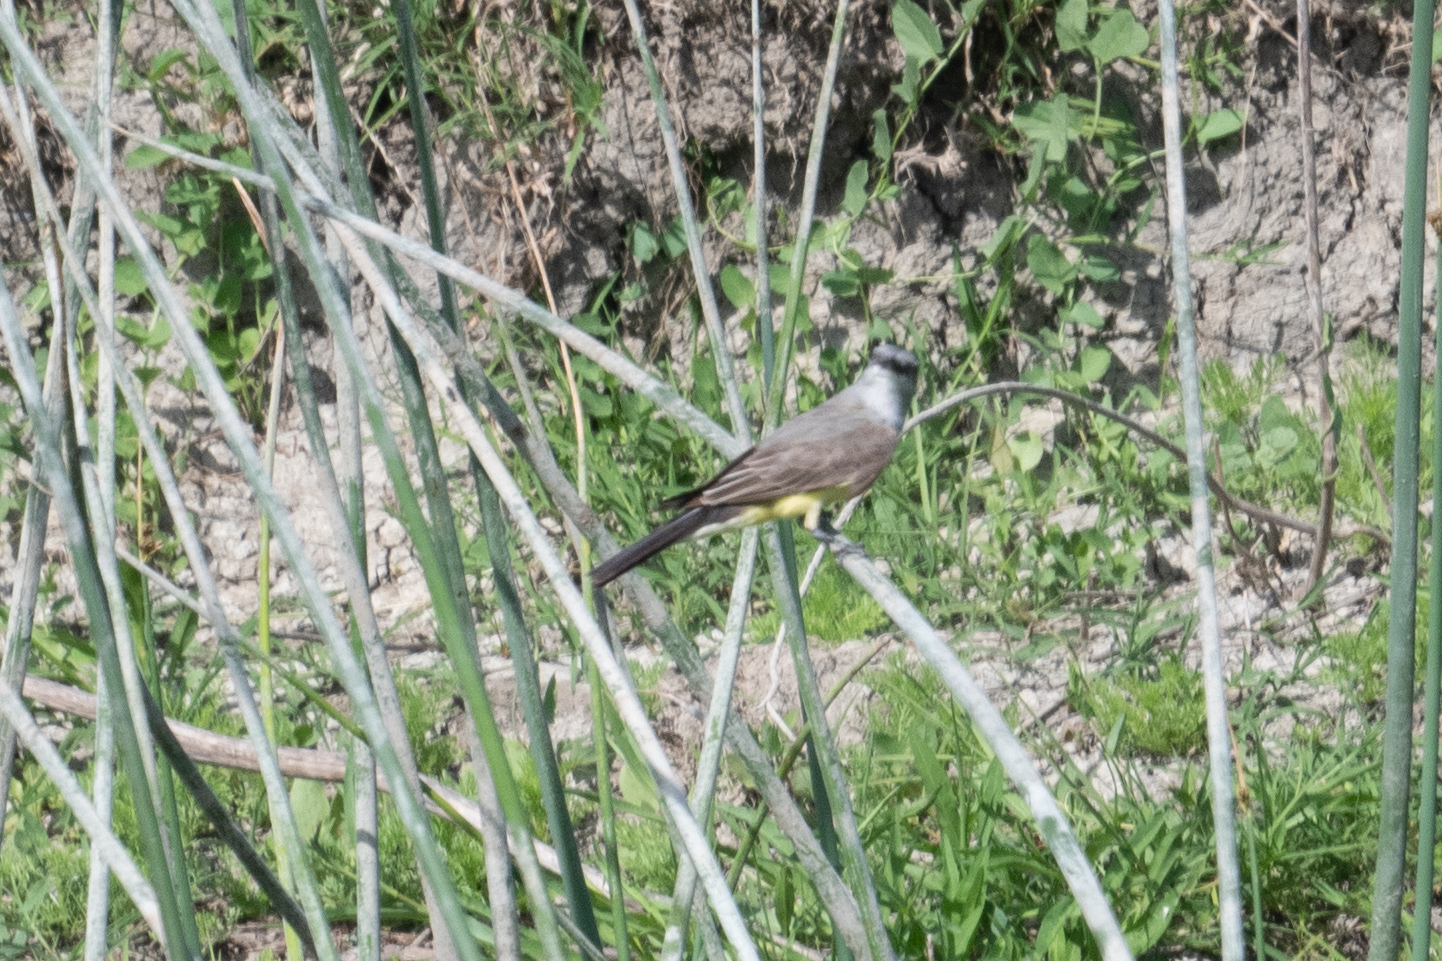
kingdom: Animalia
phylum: Chordata
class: Aves
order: Passeriformes
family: Tyrannidae
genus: Tyrannus
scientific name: Tyrannus verticalis
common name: Western kingbird
